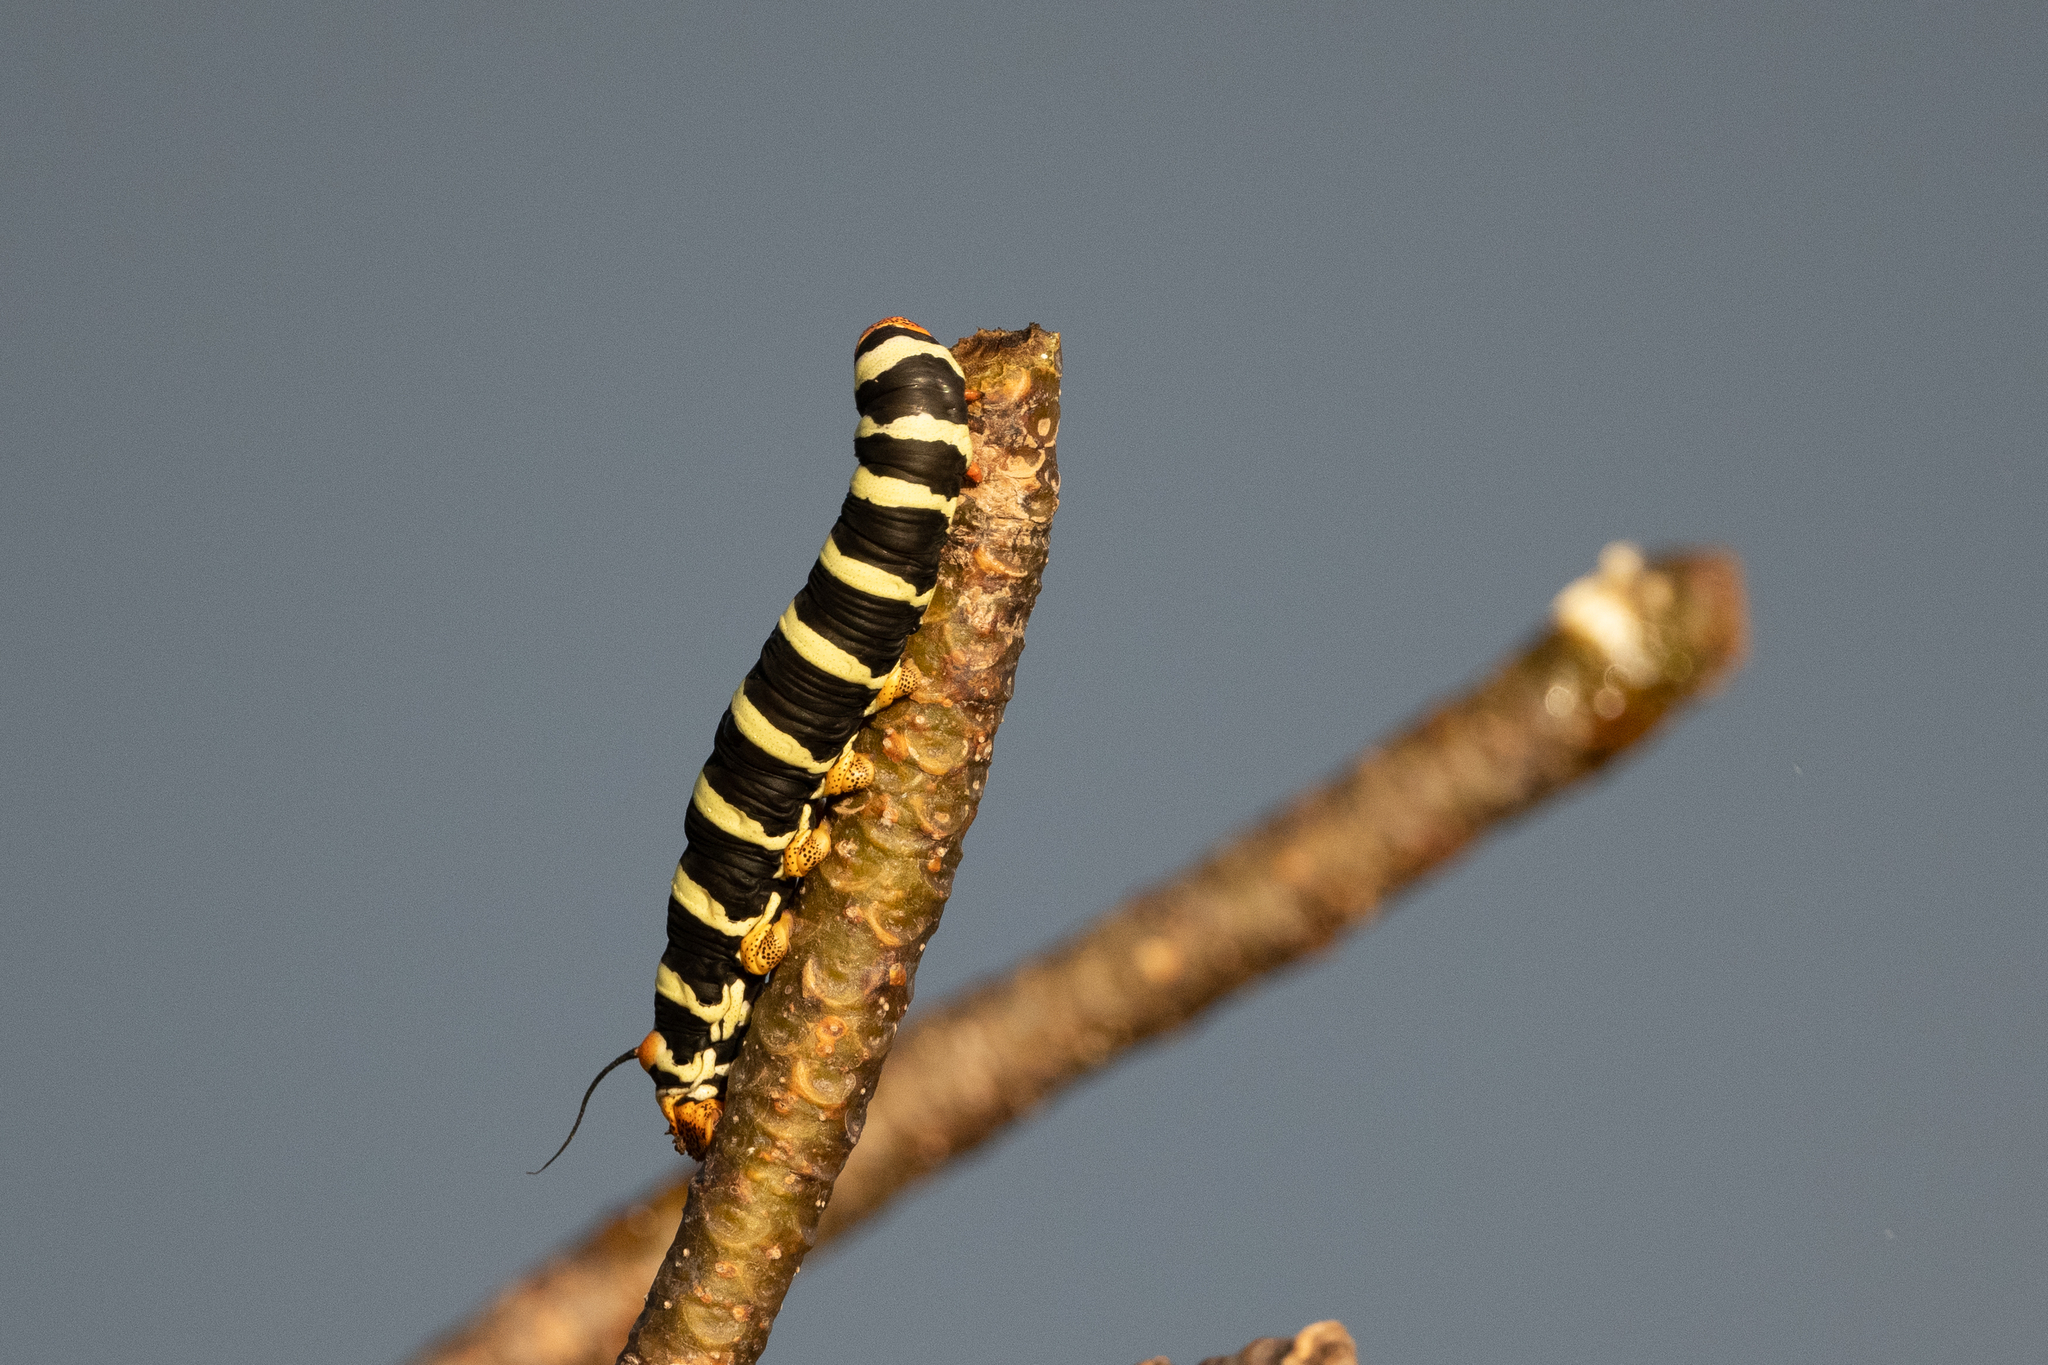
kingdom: Animalia
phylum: Arthropoda
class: Insecta
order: Lepidoptera
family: Sphingidae
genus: Pseudosphinx
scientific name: Pseudosphinx tetrio
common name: Tetrio sphinx
